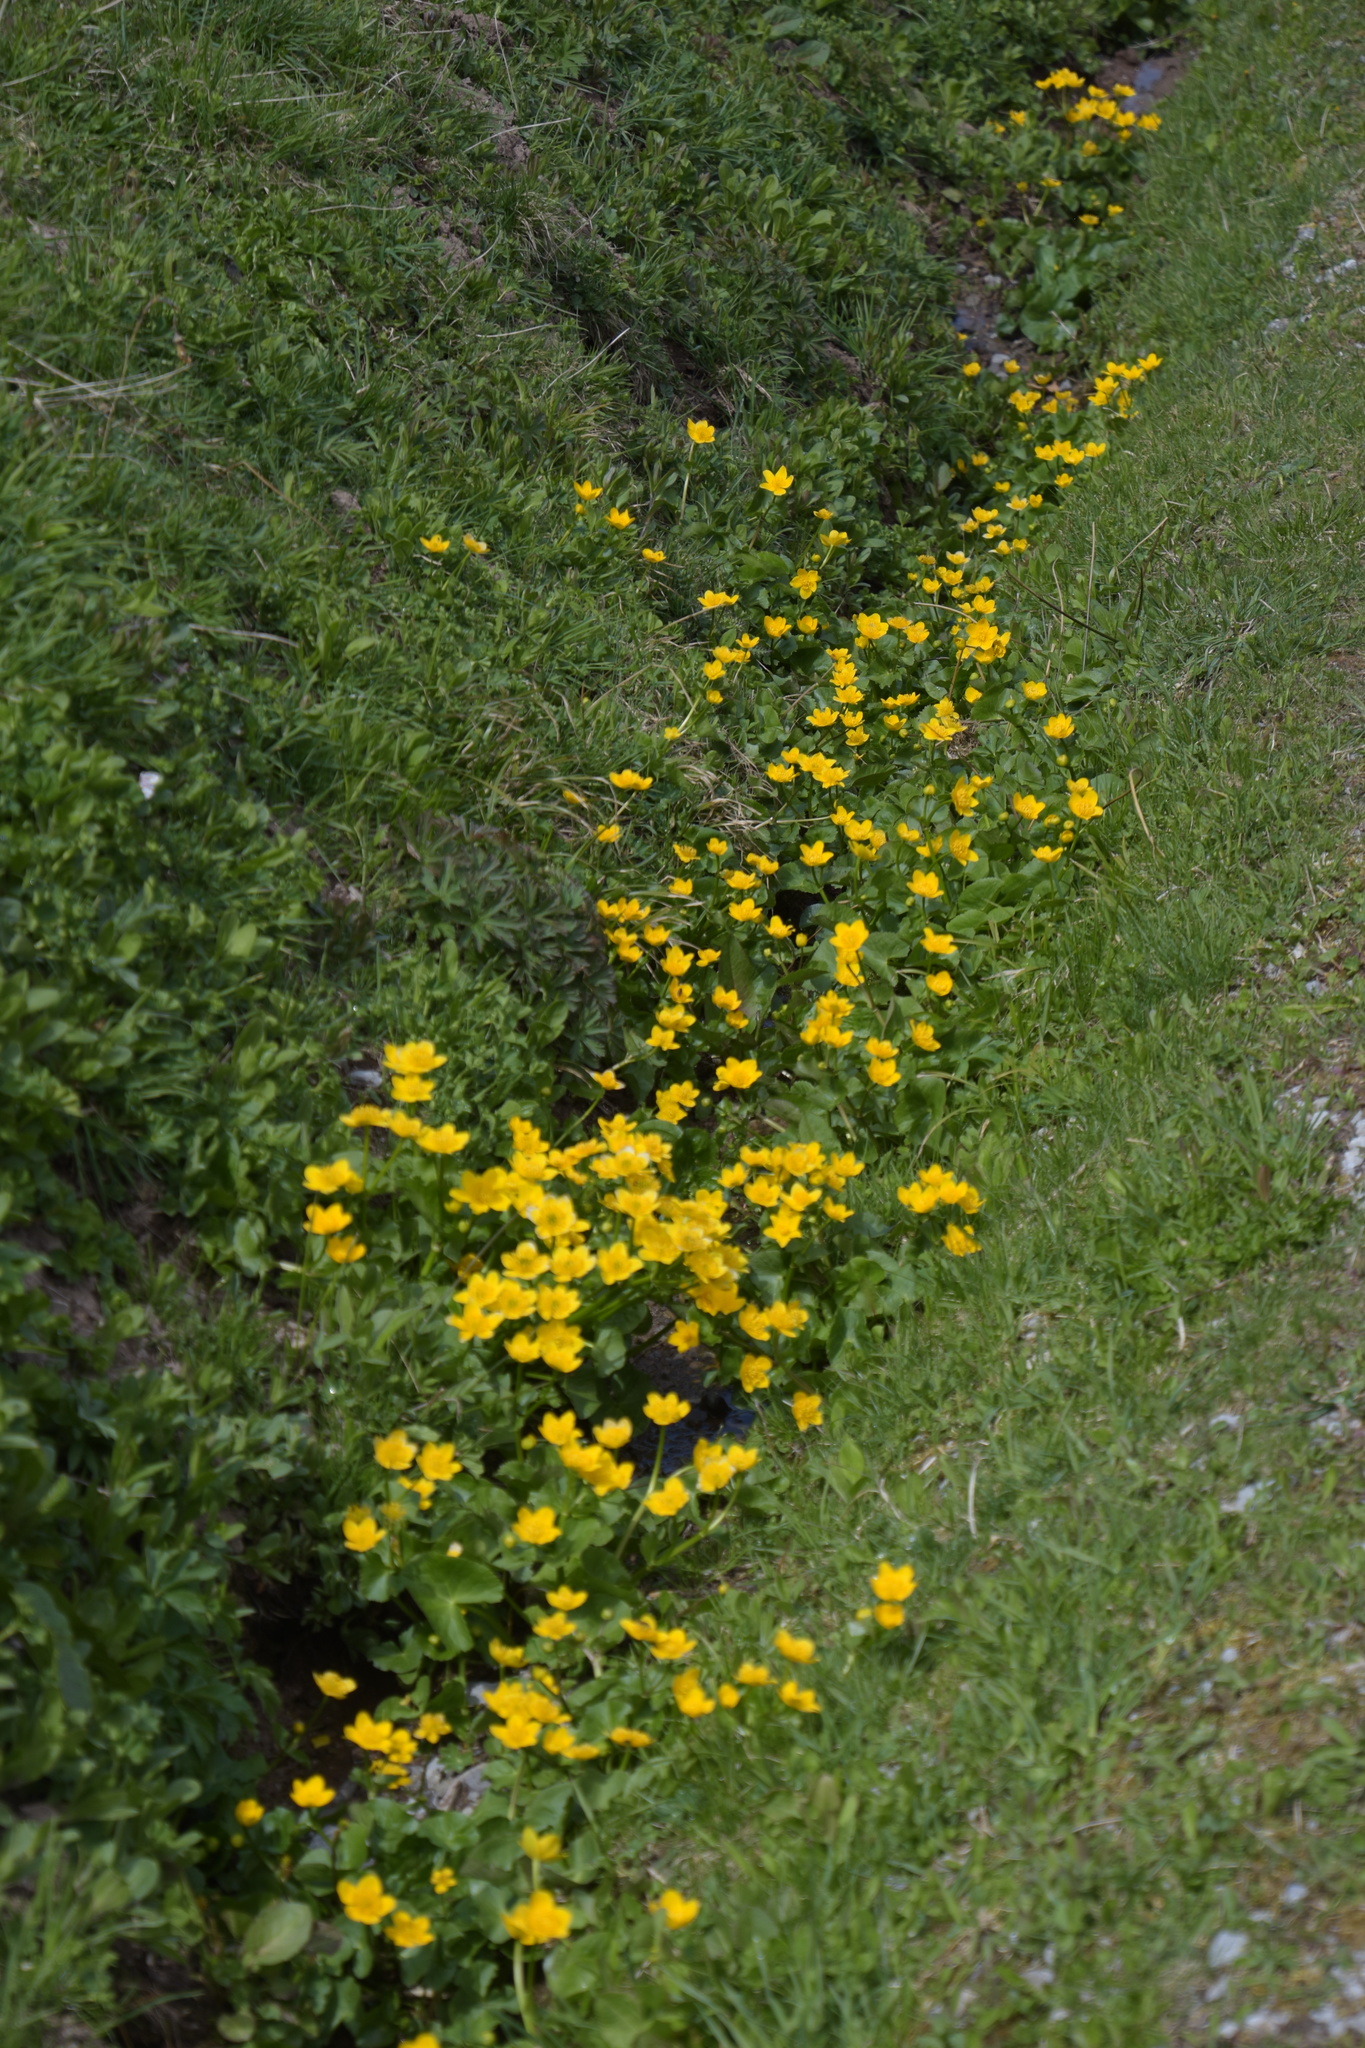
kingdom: Plantae
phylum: Tracheophyta
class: Magnoliopsida
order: Ranunculales
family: Ranunculaceae
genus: Caltha
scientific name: Caltha palustris
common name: Marsh marigold
